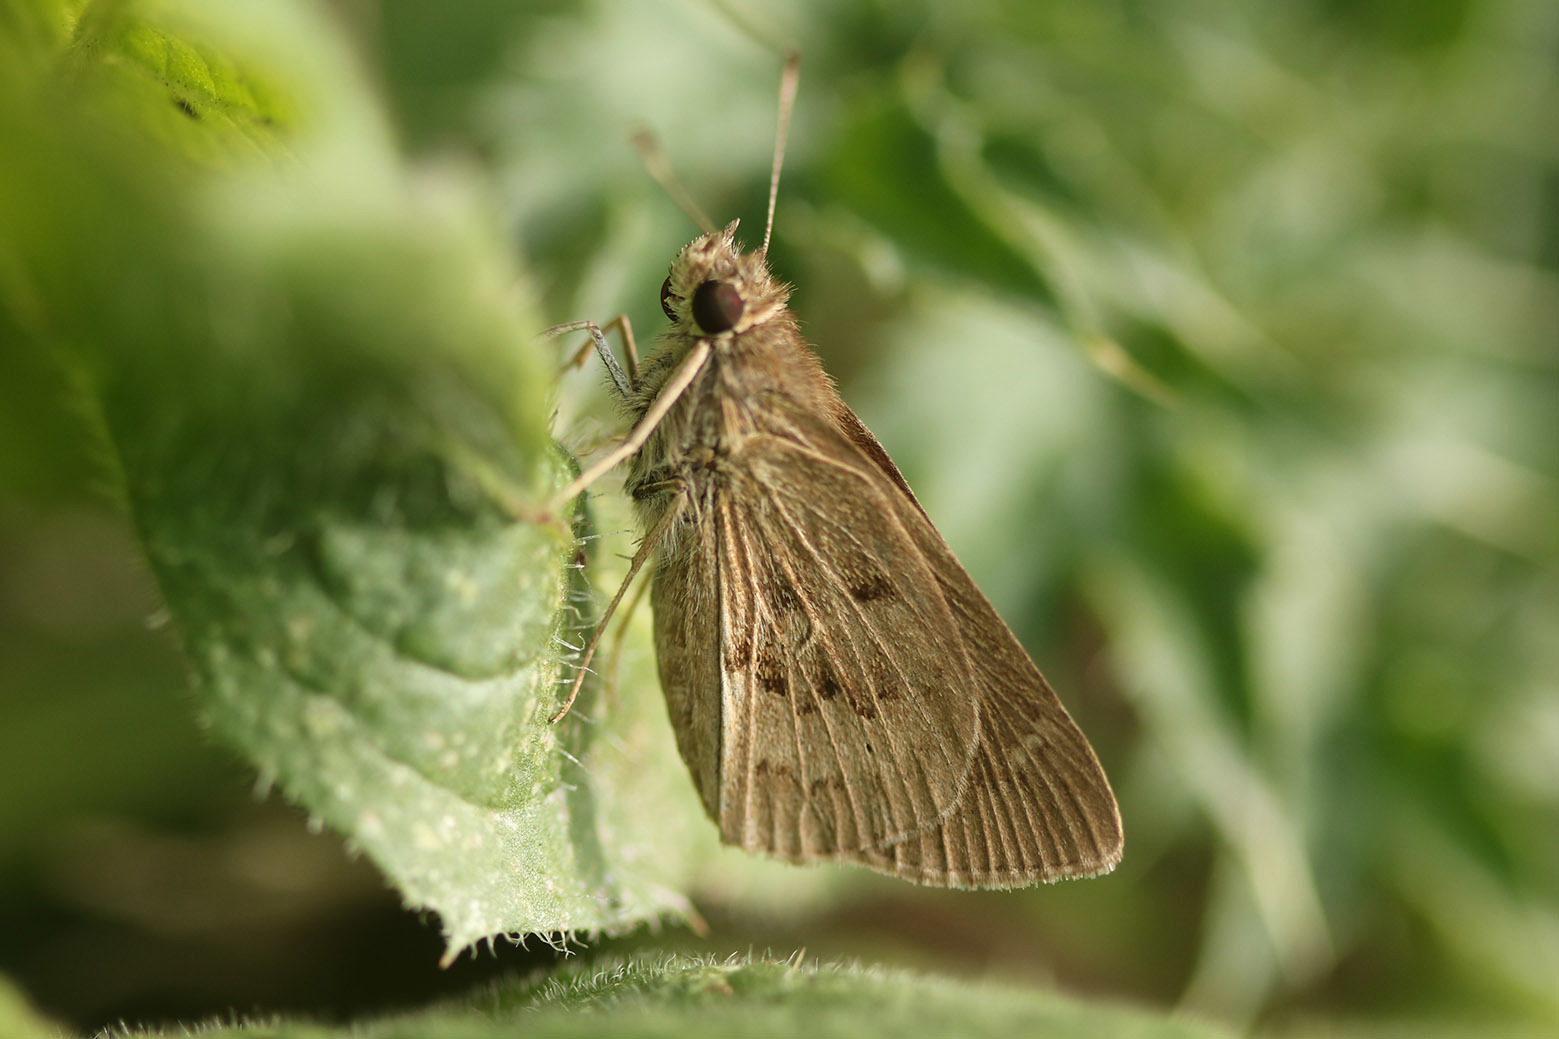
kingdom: Animalia
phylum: Arthropoda
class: Insecta
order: Lepidoptera
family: Hesperiidae
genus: Cymaenes
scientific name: Cymaenes gisca
